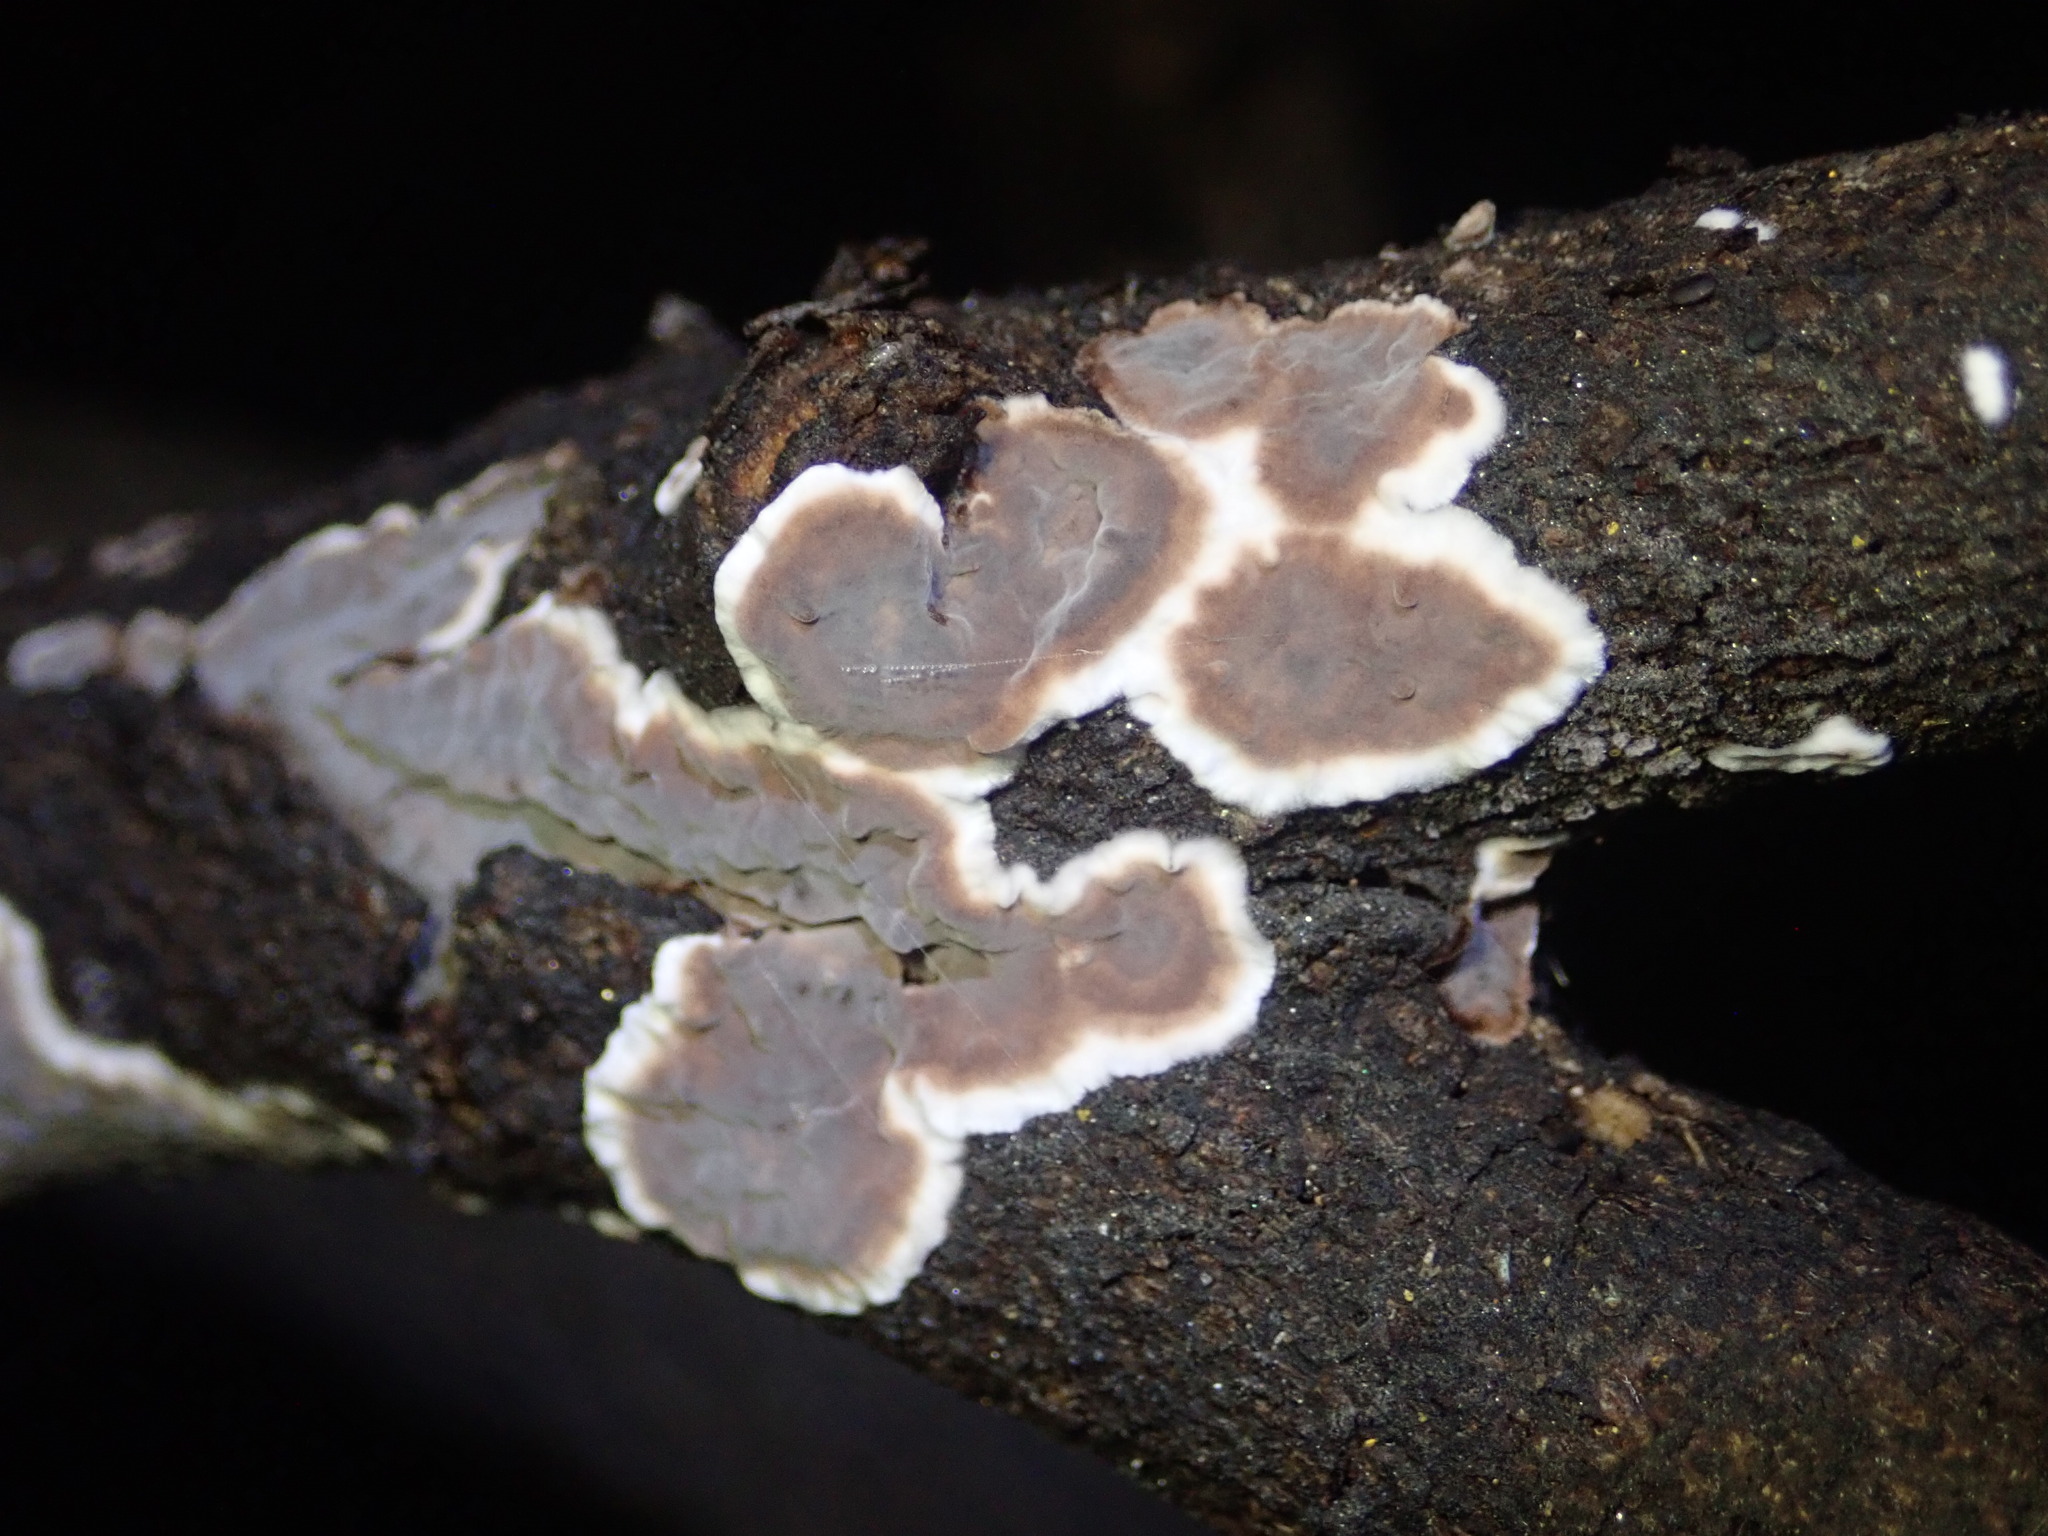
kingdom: Fungi
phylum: Basidiomycota
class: Agaricomycetes
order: Russulales
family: Peniophoraceae
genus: Peniophora
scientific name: Peniophora albobadia
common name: Giraffe spots
